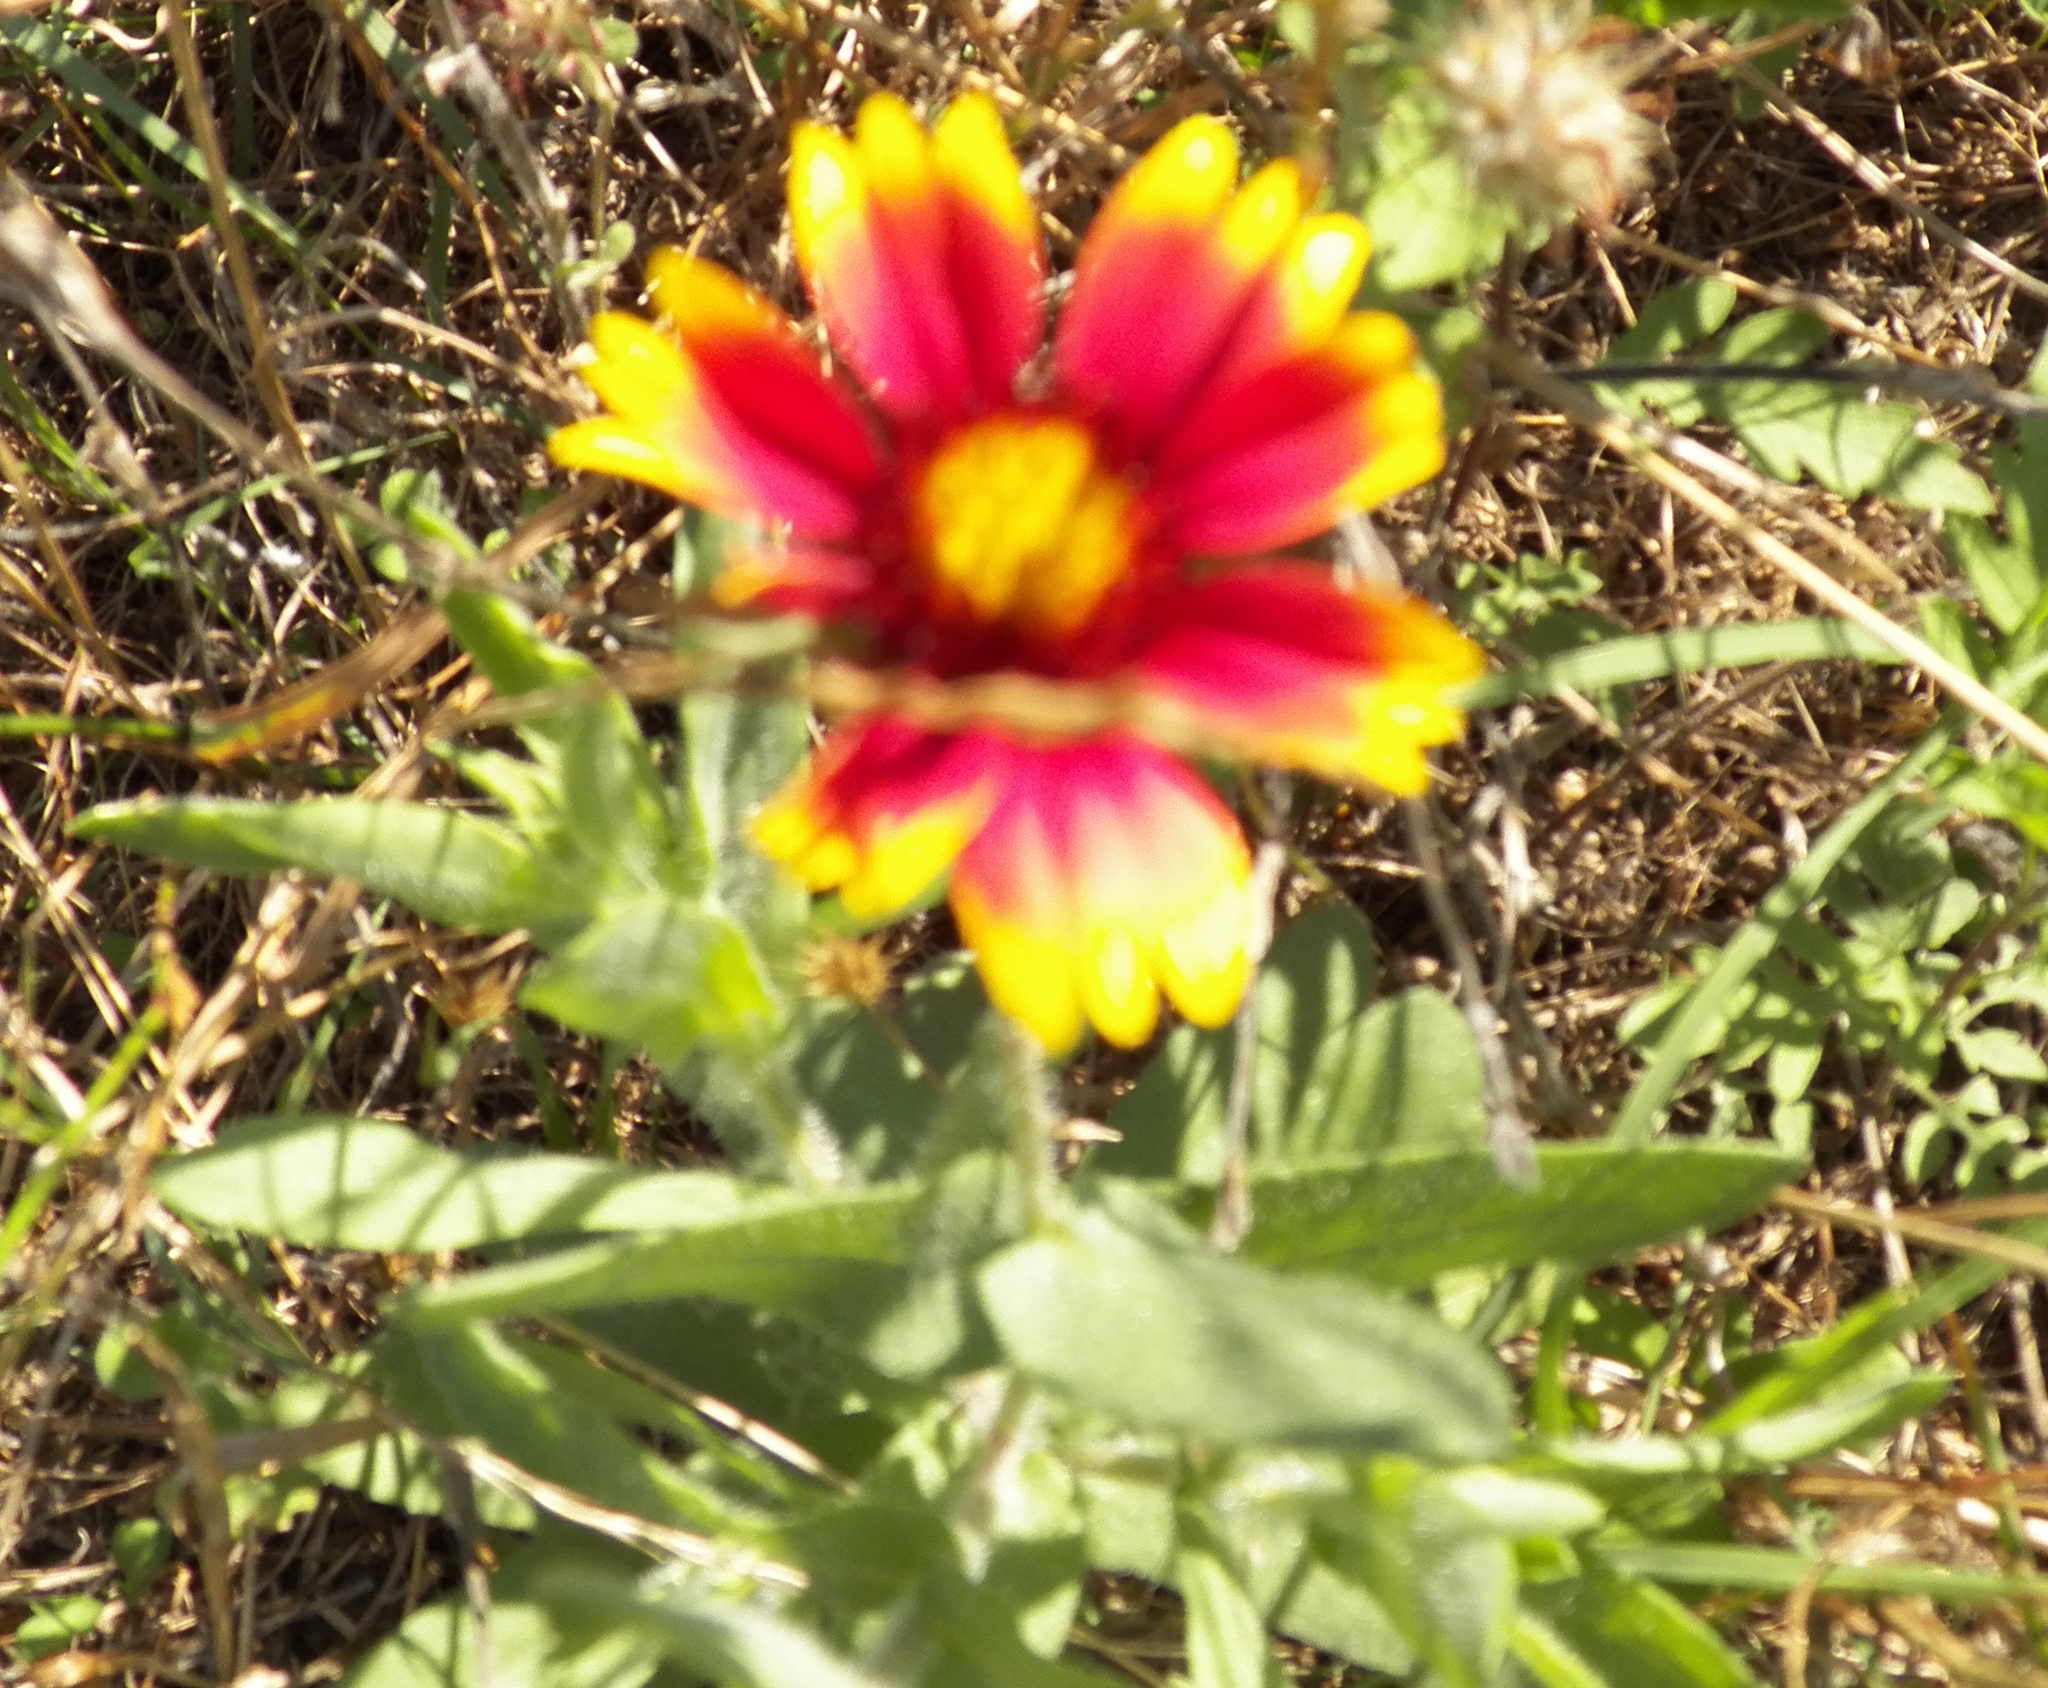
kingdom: Plantae
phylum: Tracheophyta
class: Magnoliopsida
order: Asterales
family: Asteraceae
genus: Gaillardia
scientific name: Gaillardia pulchella
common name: Firewheel
